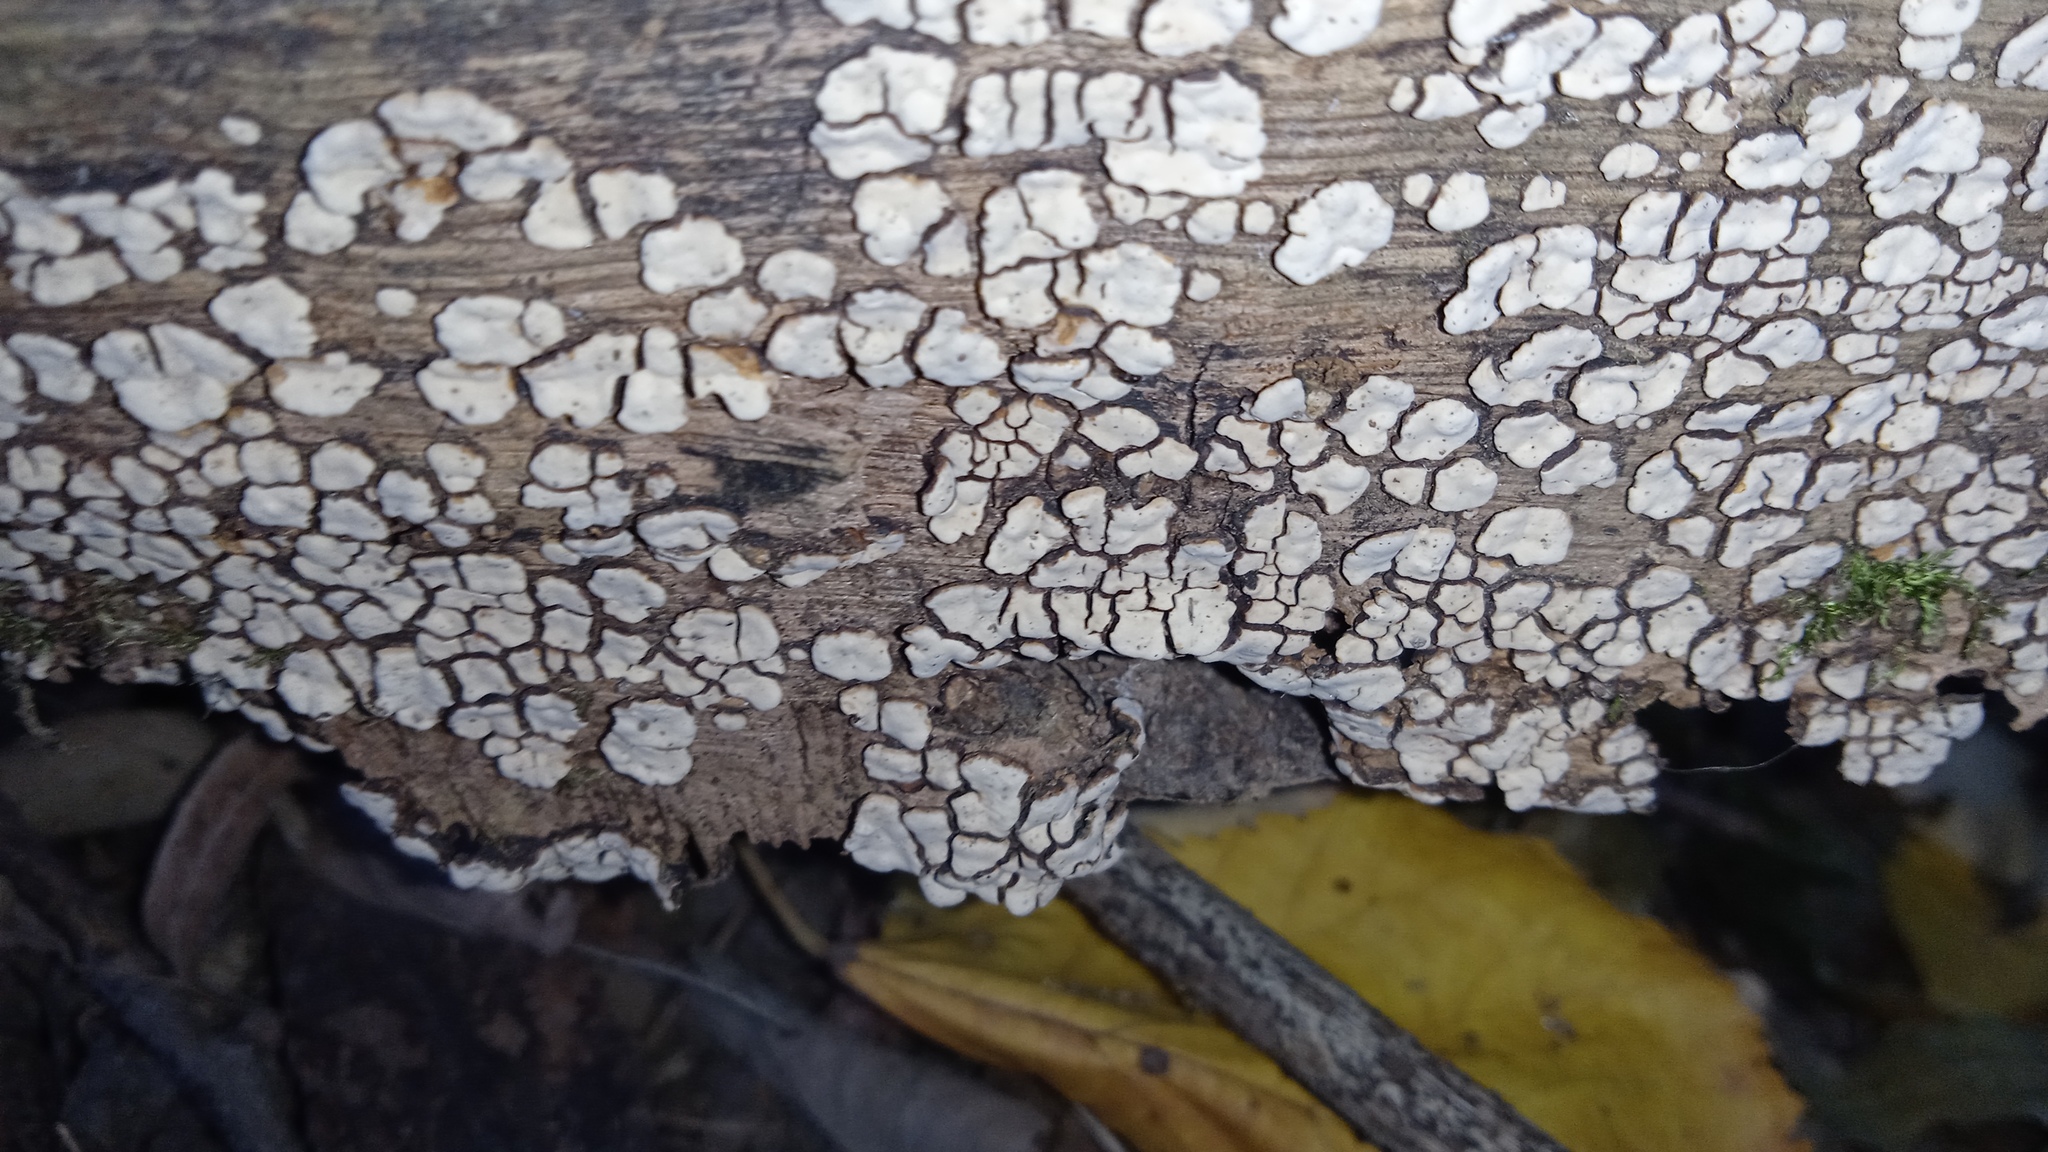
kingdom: Fungi
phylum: Basidiomycota
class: Agaricomycetes
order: Russulales
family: Stereaceae
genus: Xylobolus
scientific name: Xylobolus frustulatus
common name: Ceramic parchment
